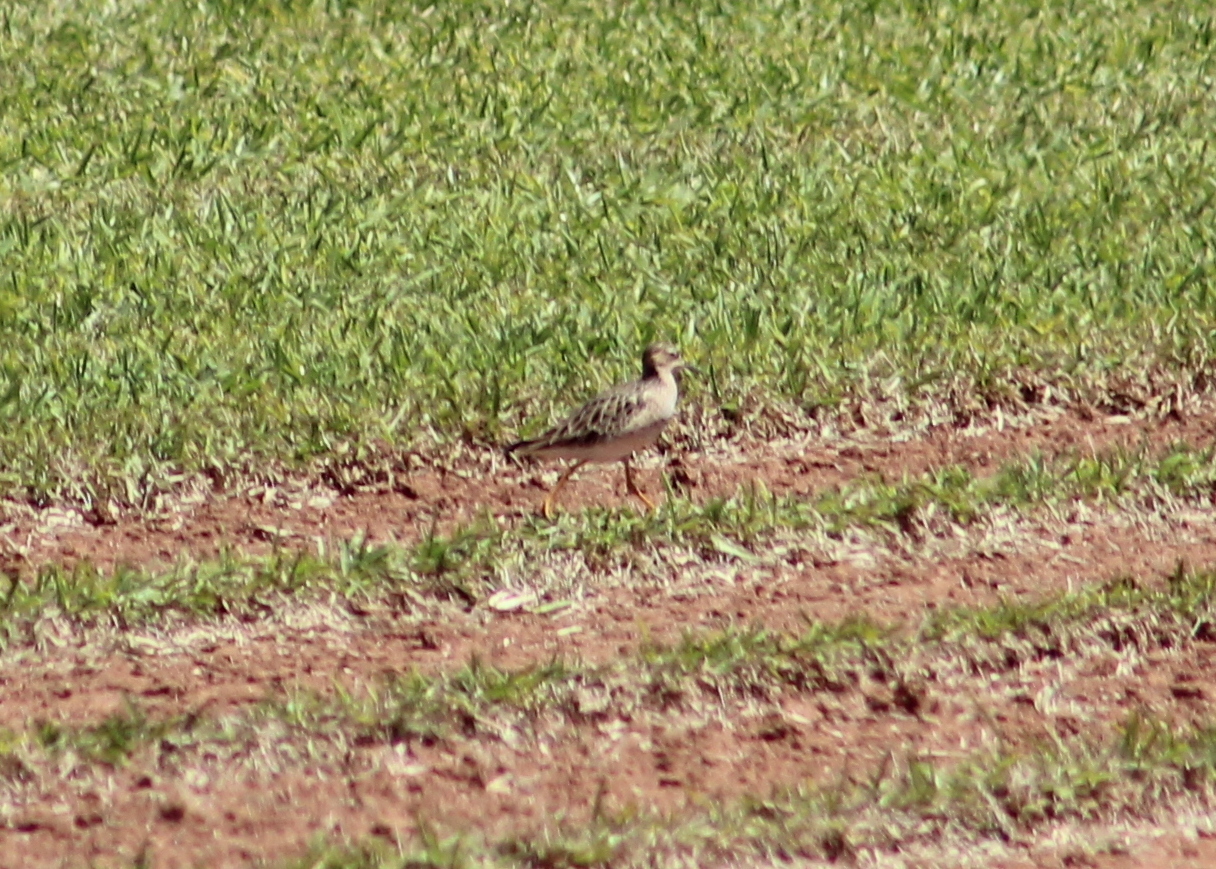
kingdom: Animalia
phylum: Chordata
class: Aves
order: Charadriiformes
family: Scolopacidae
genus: Calidris
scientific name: Calidris subruficollis
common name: Buff-breasted sandpiper
